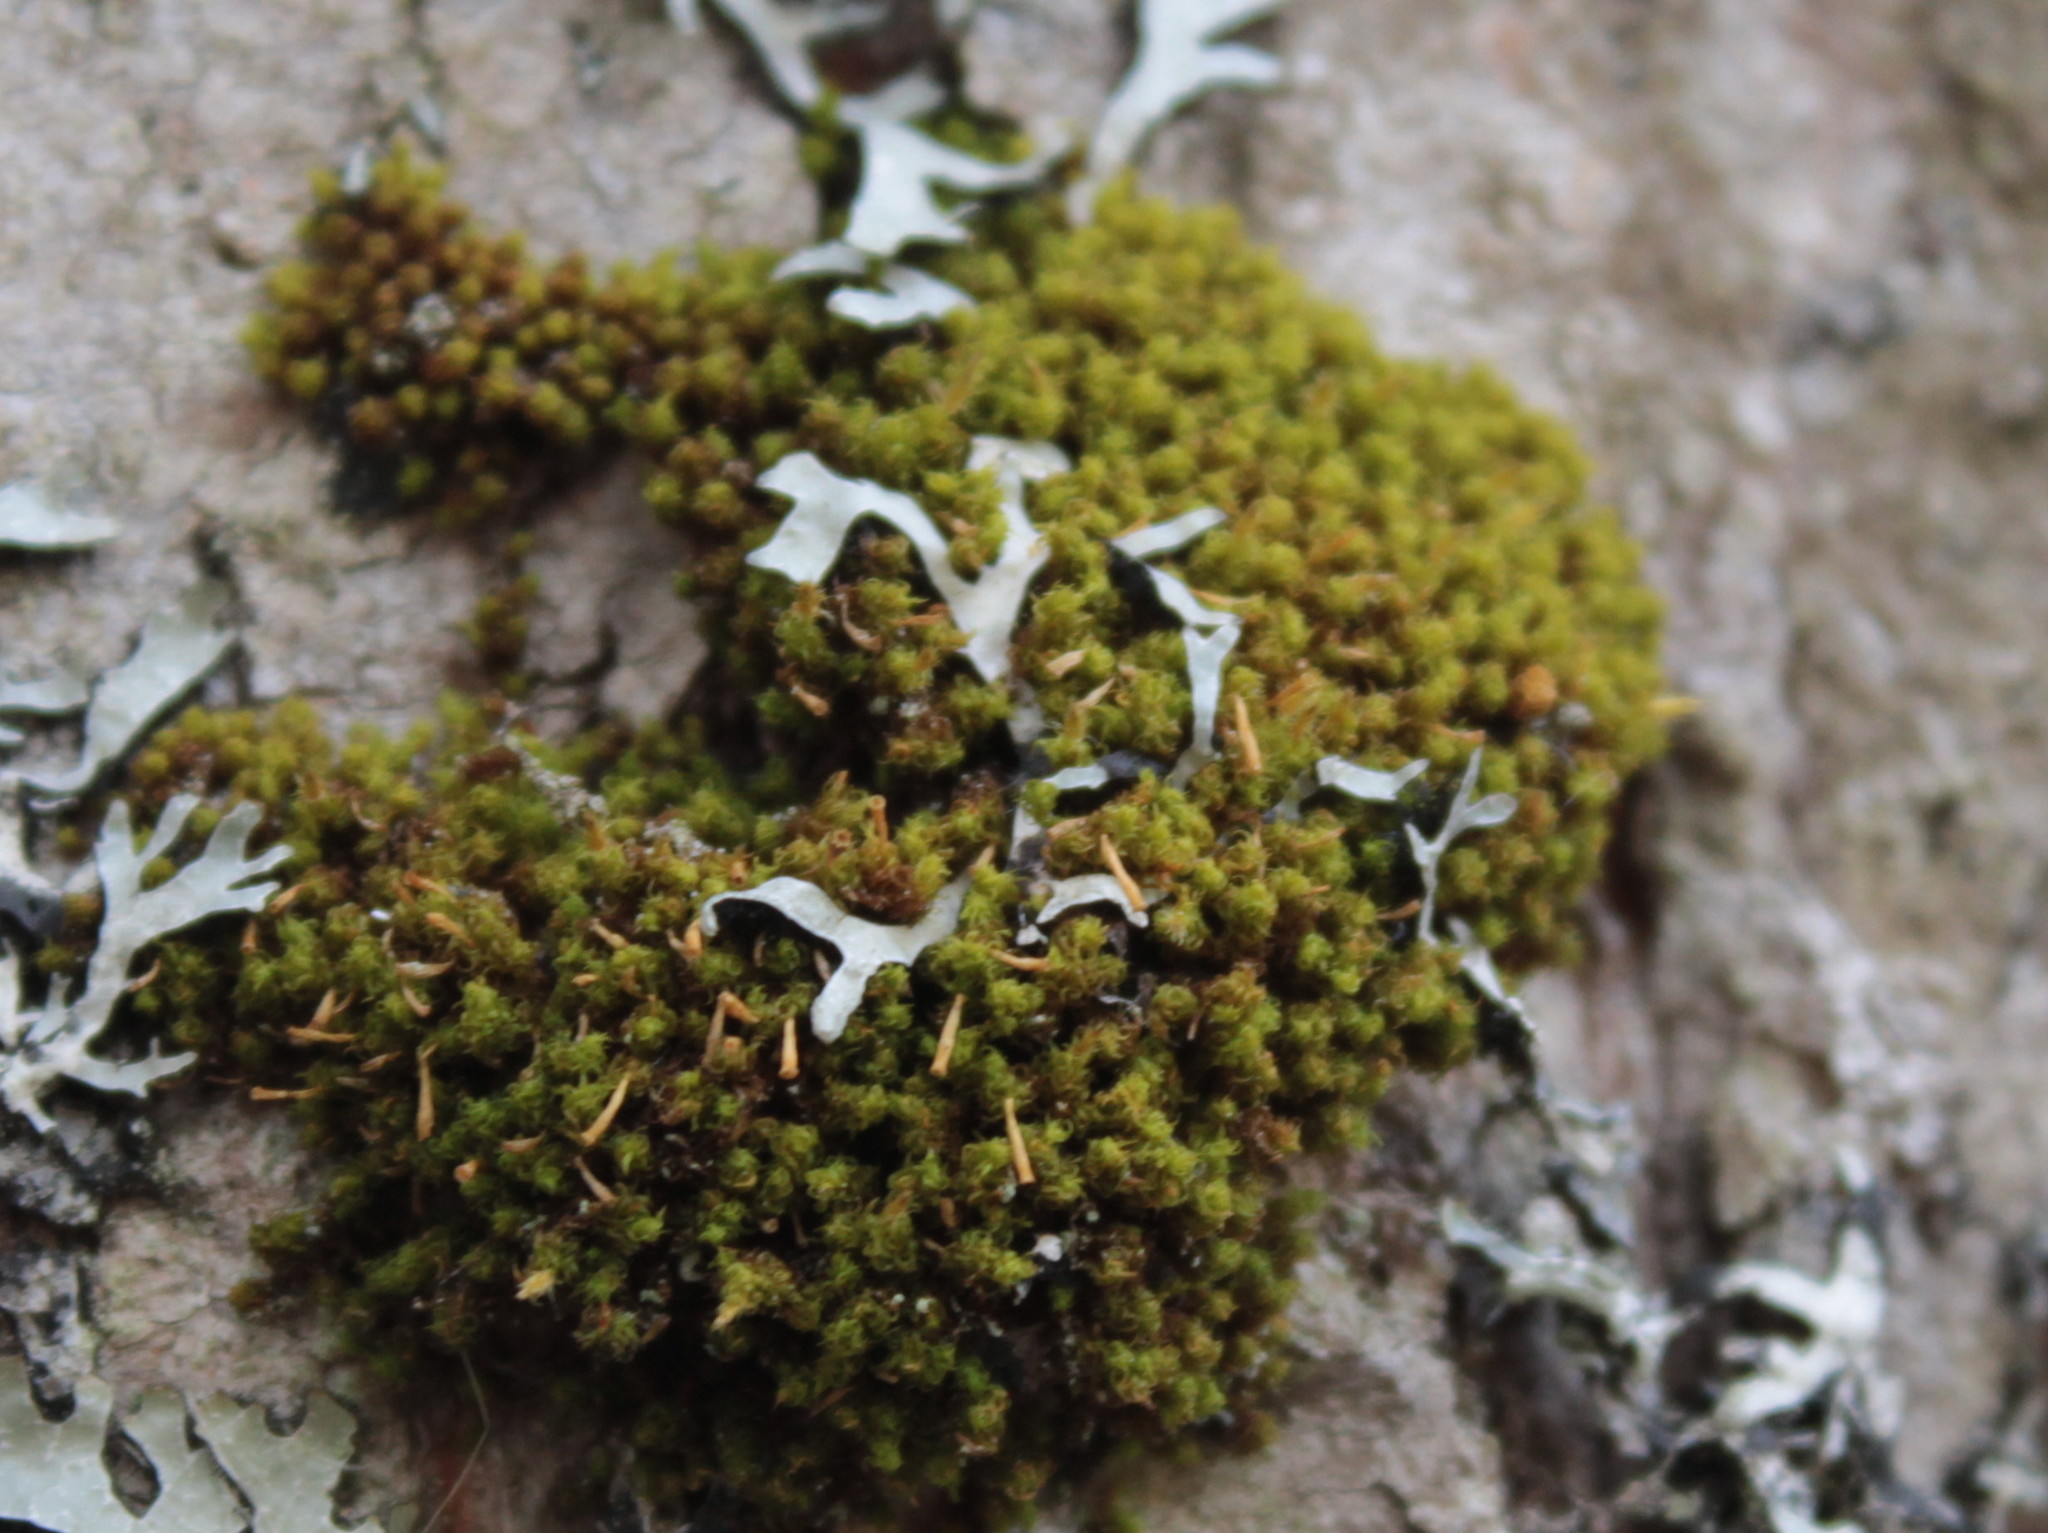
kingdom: Plantae
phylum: Bryophyta
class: Bryopsida
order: Orthotrichales
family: Orthotrichaceae
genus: Ulota
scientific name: Ulota crispa
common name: Crisped pincushion moss
